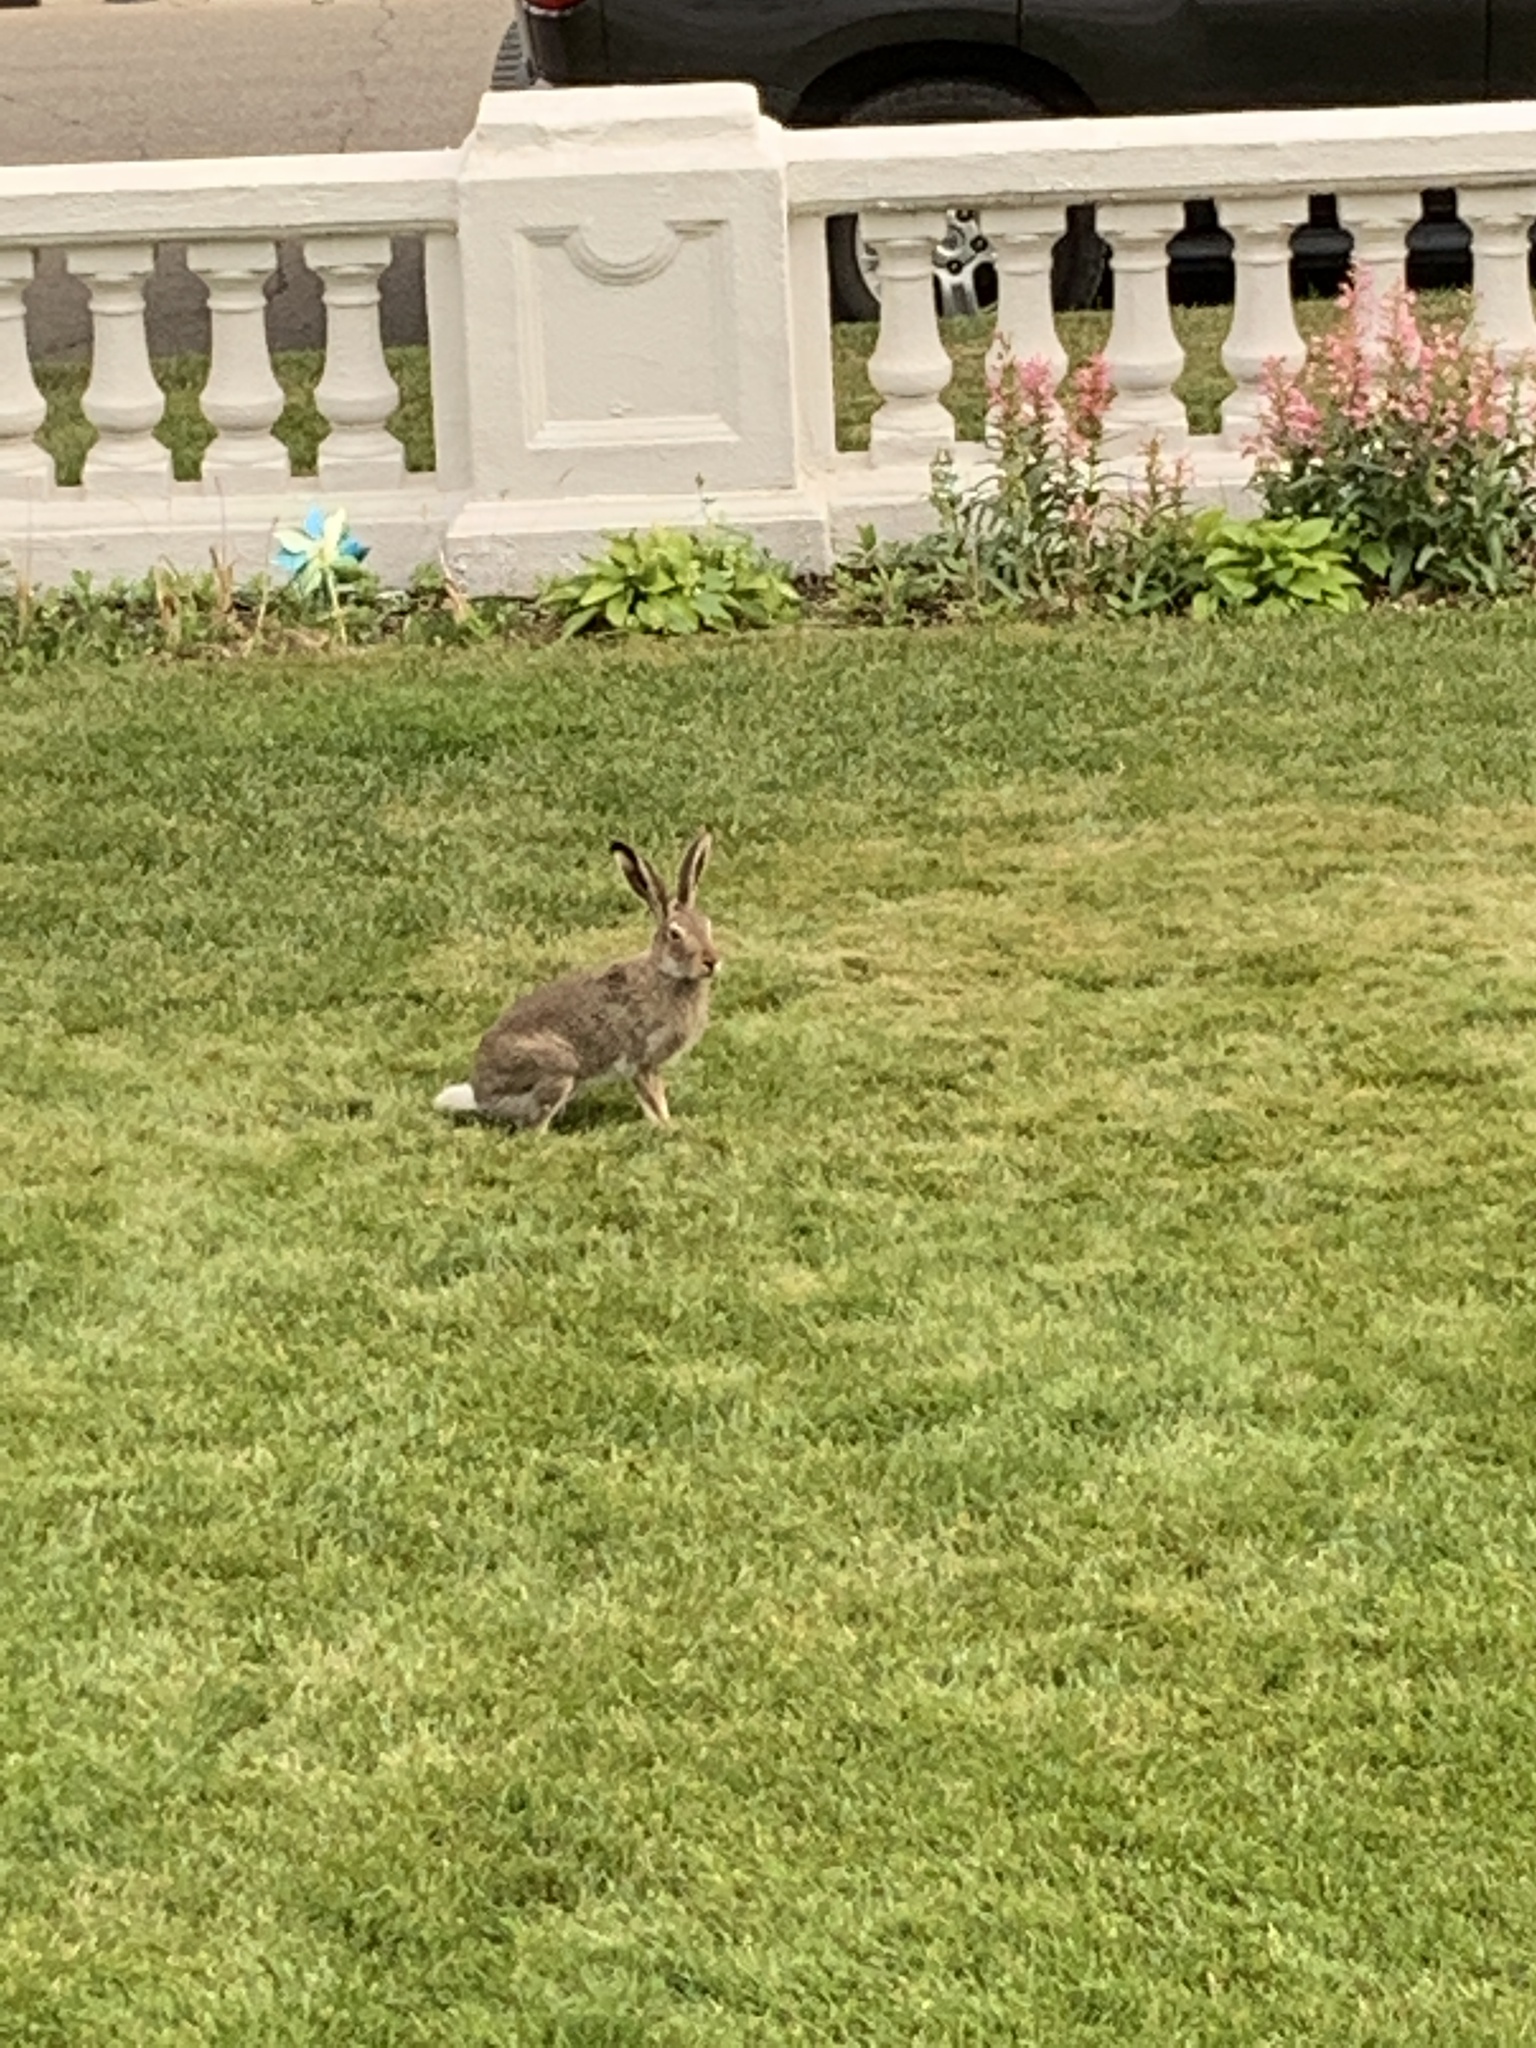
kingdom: Animalia
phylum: Chordata
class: Mammalia
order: Lagomorpha
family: Leporidae
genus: Lepus
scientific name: Lepus townsendii
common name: White-tailed jackrabbit
